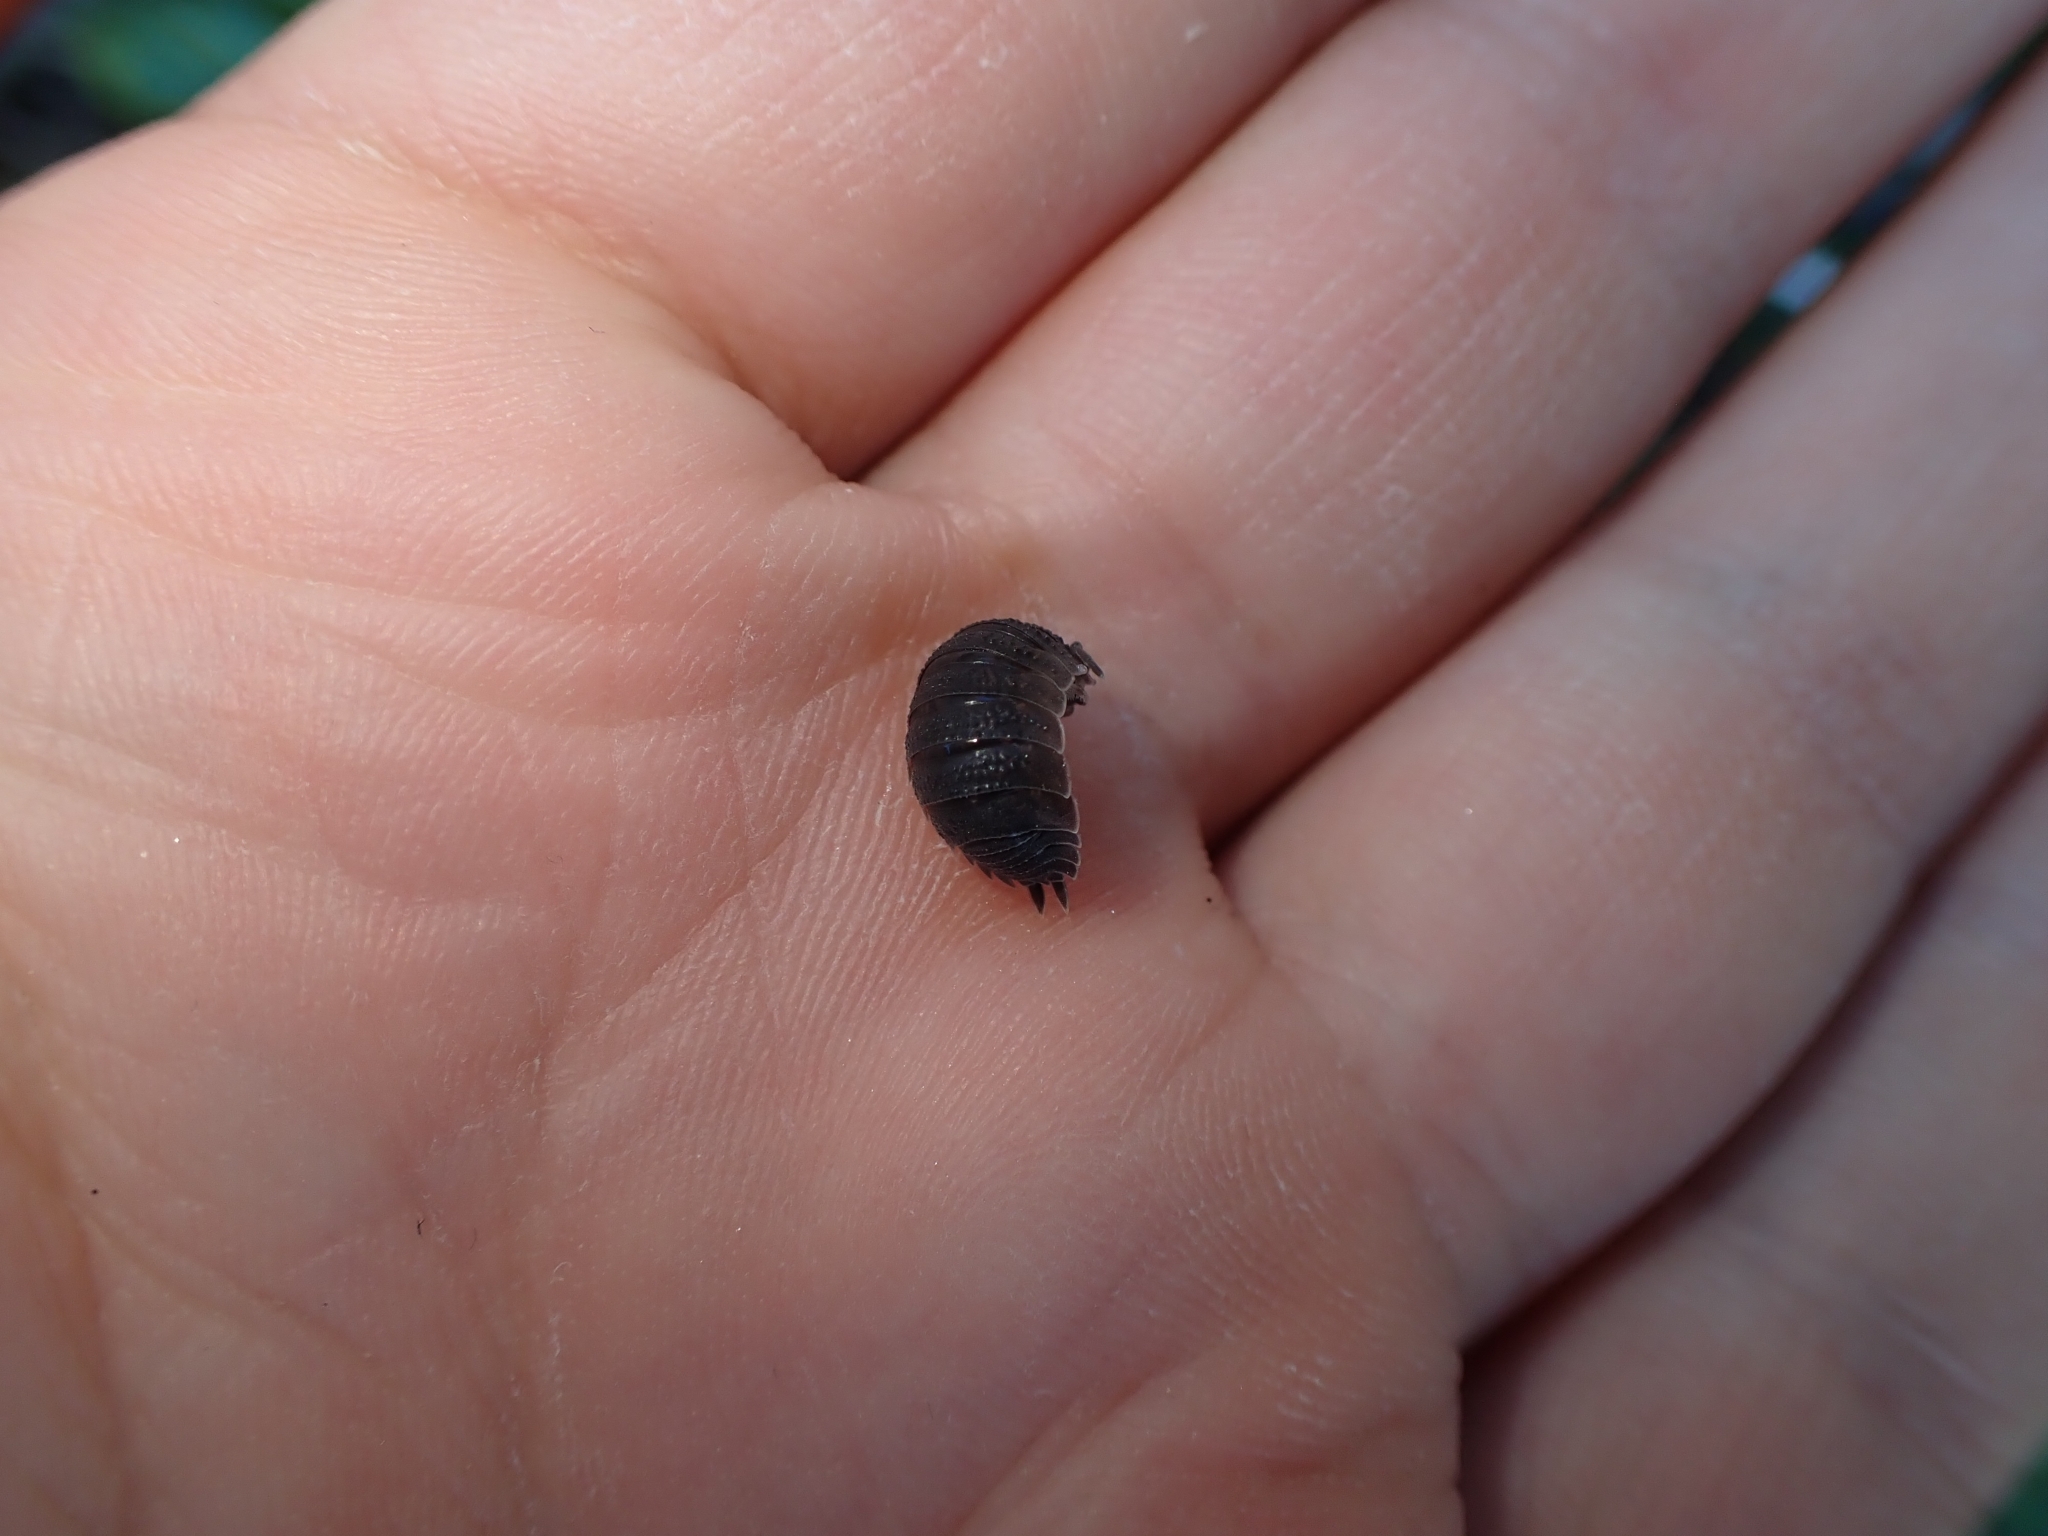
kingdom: Animalia
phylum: Arthropoda
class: Malacostraca
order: Isopoda
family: Porcellionidae
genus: Porcellio
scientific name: Porcellio scaber
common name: Common rough woodlouse
